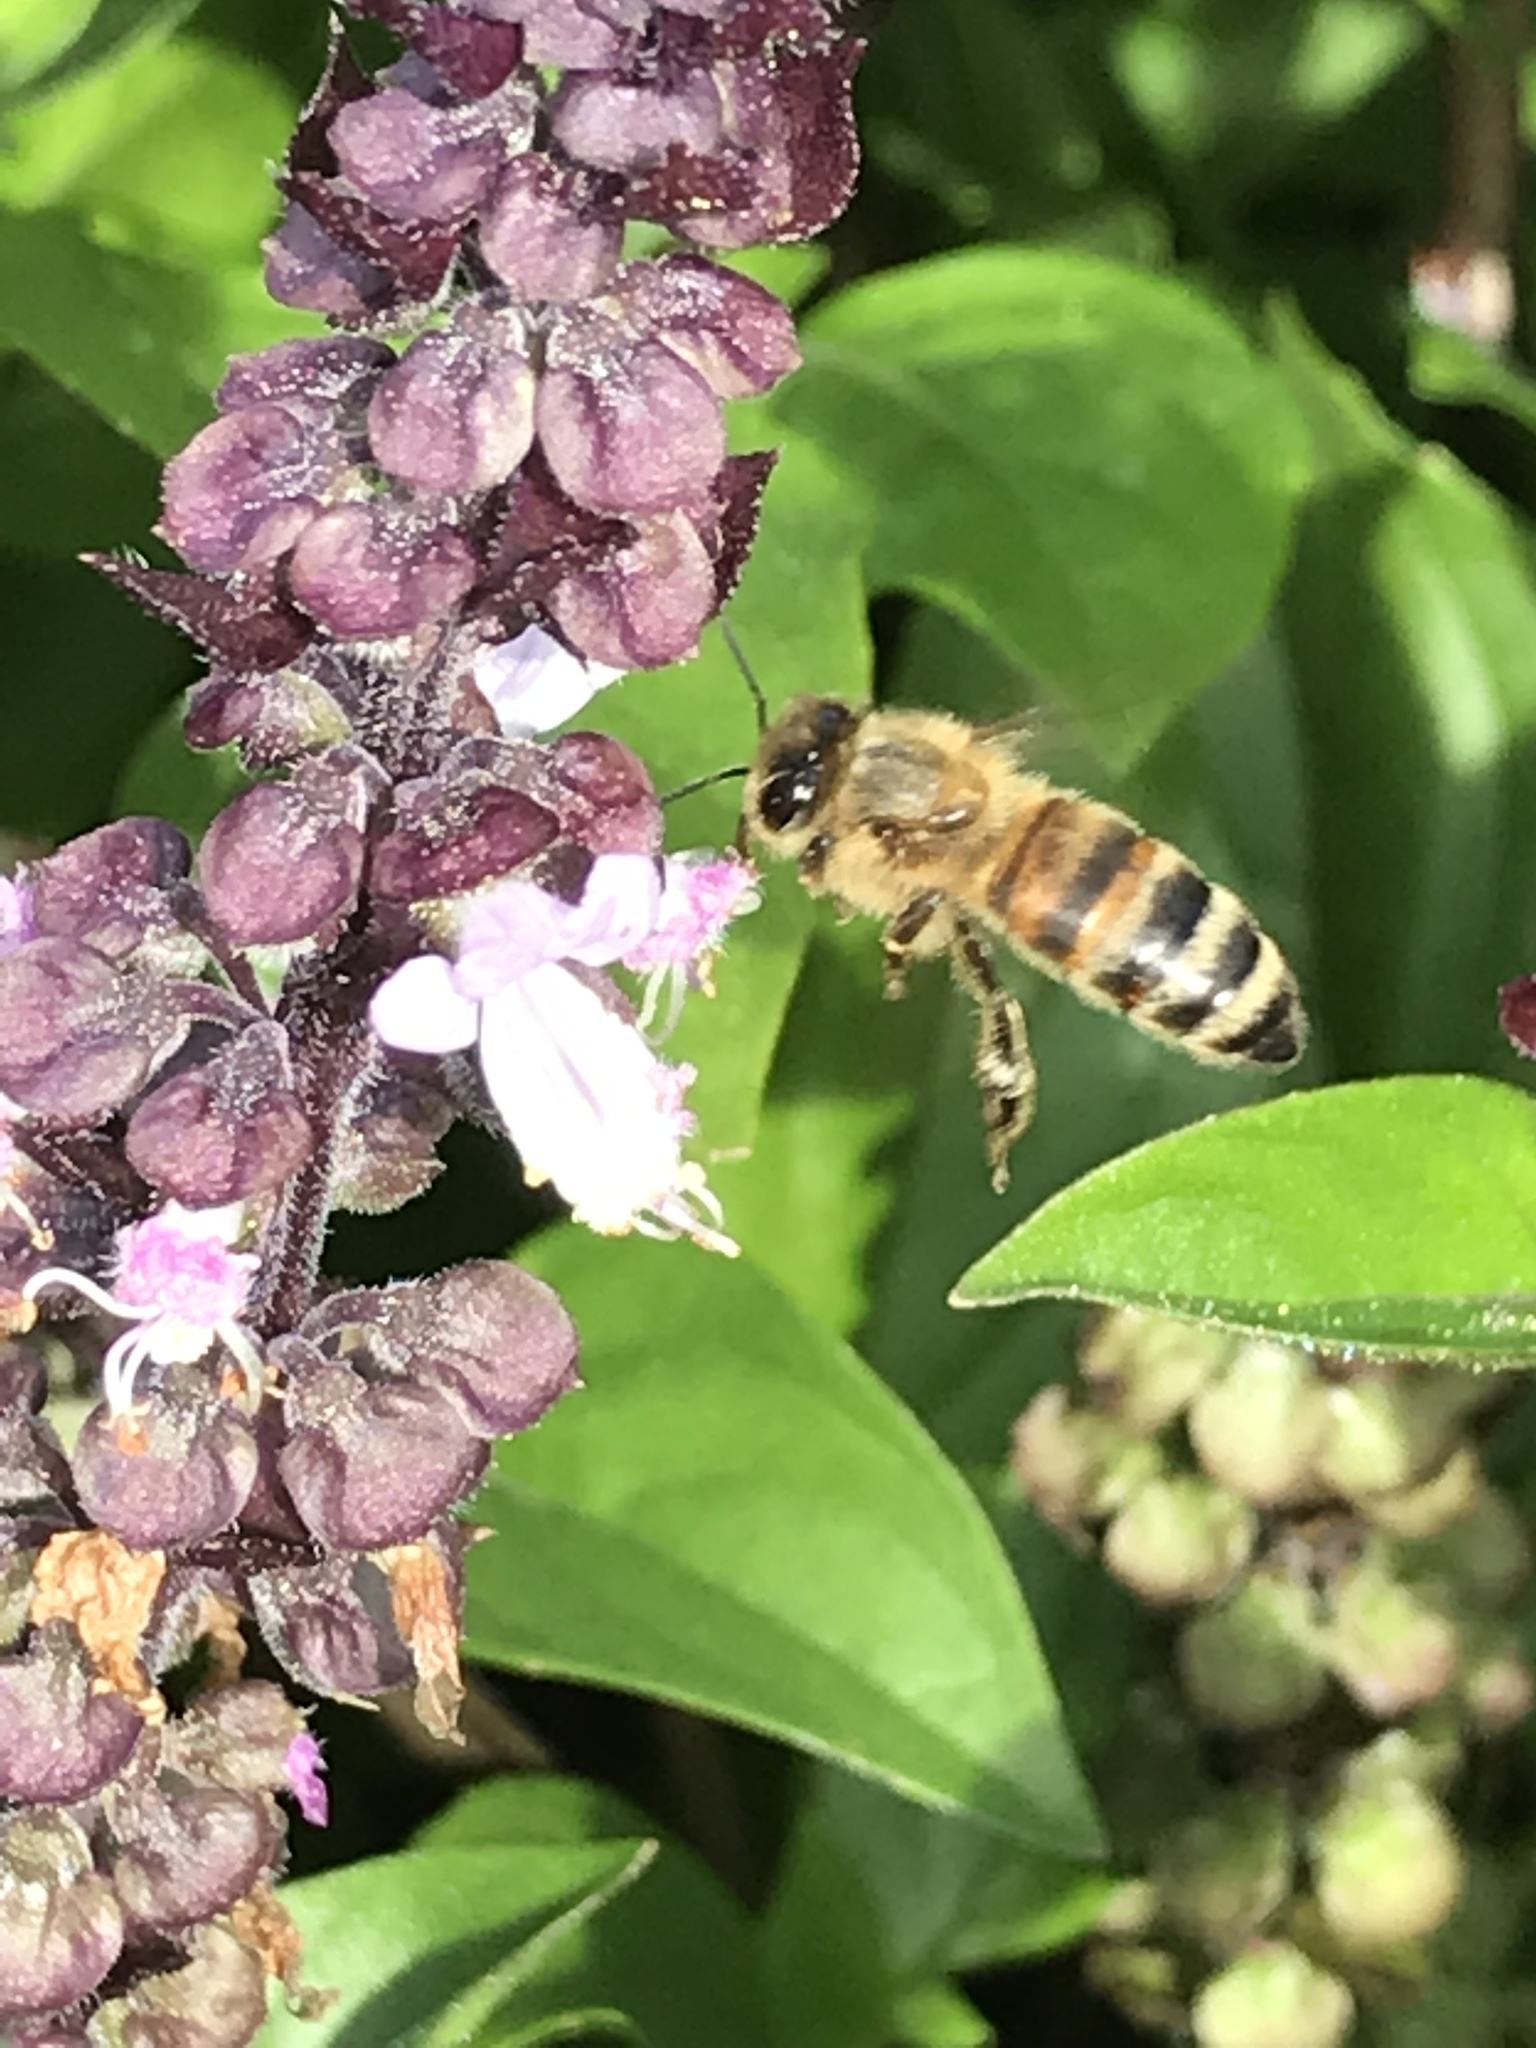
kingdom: Animalia
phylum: Arthropoda
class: Insecta
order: Hymenoptera
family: Apidae
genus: Apis
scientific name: Apis mellifera
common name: Honey bee
